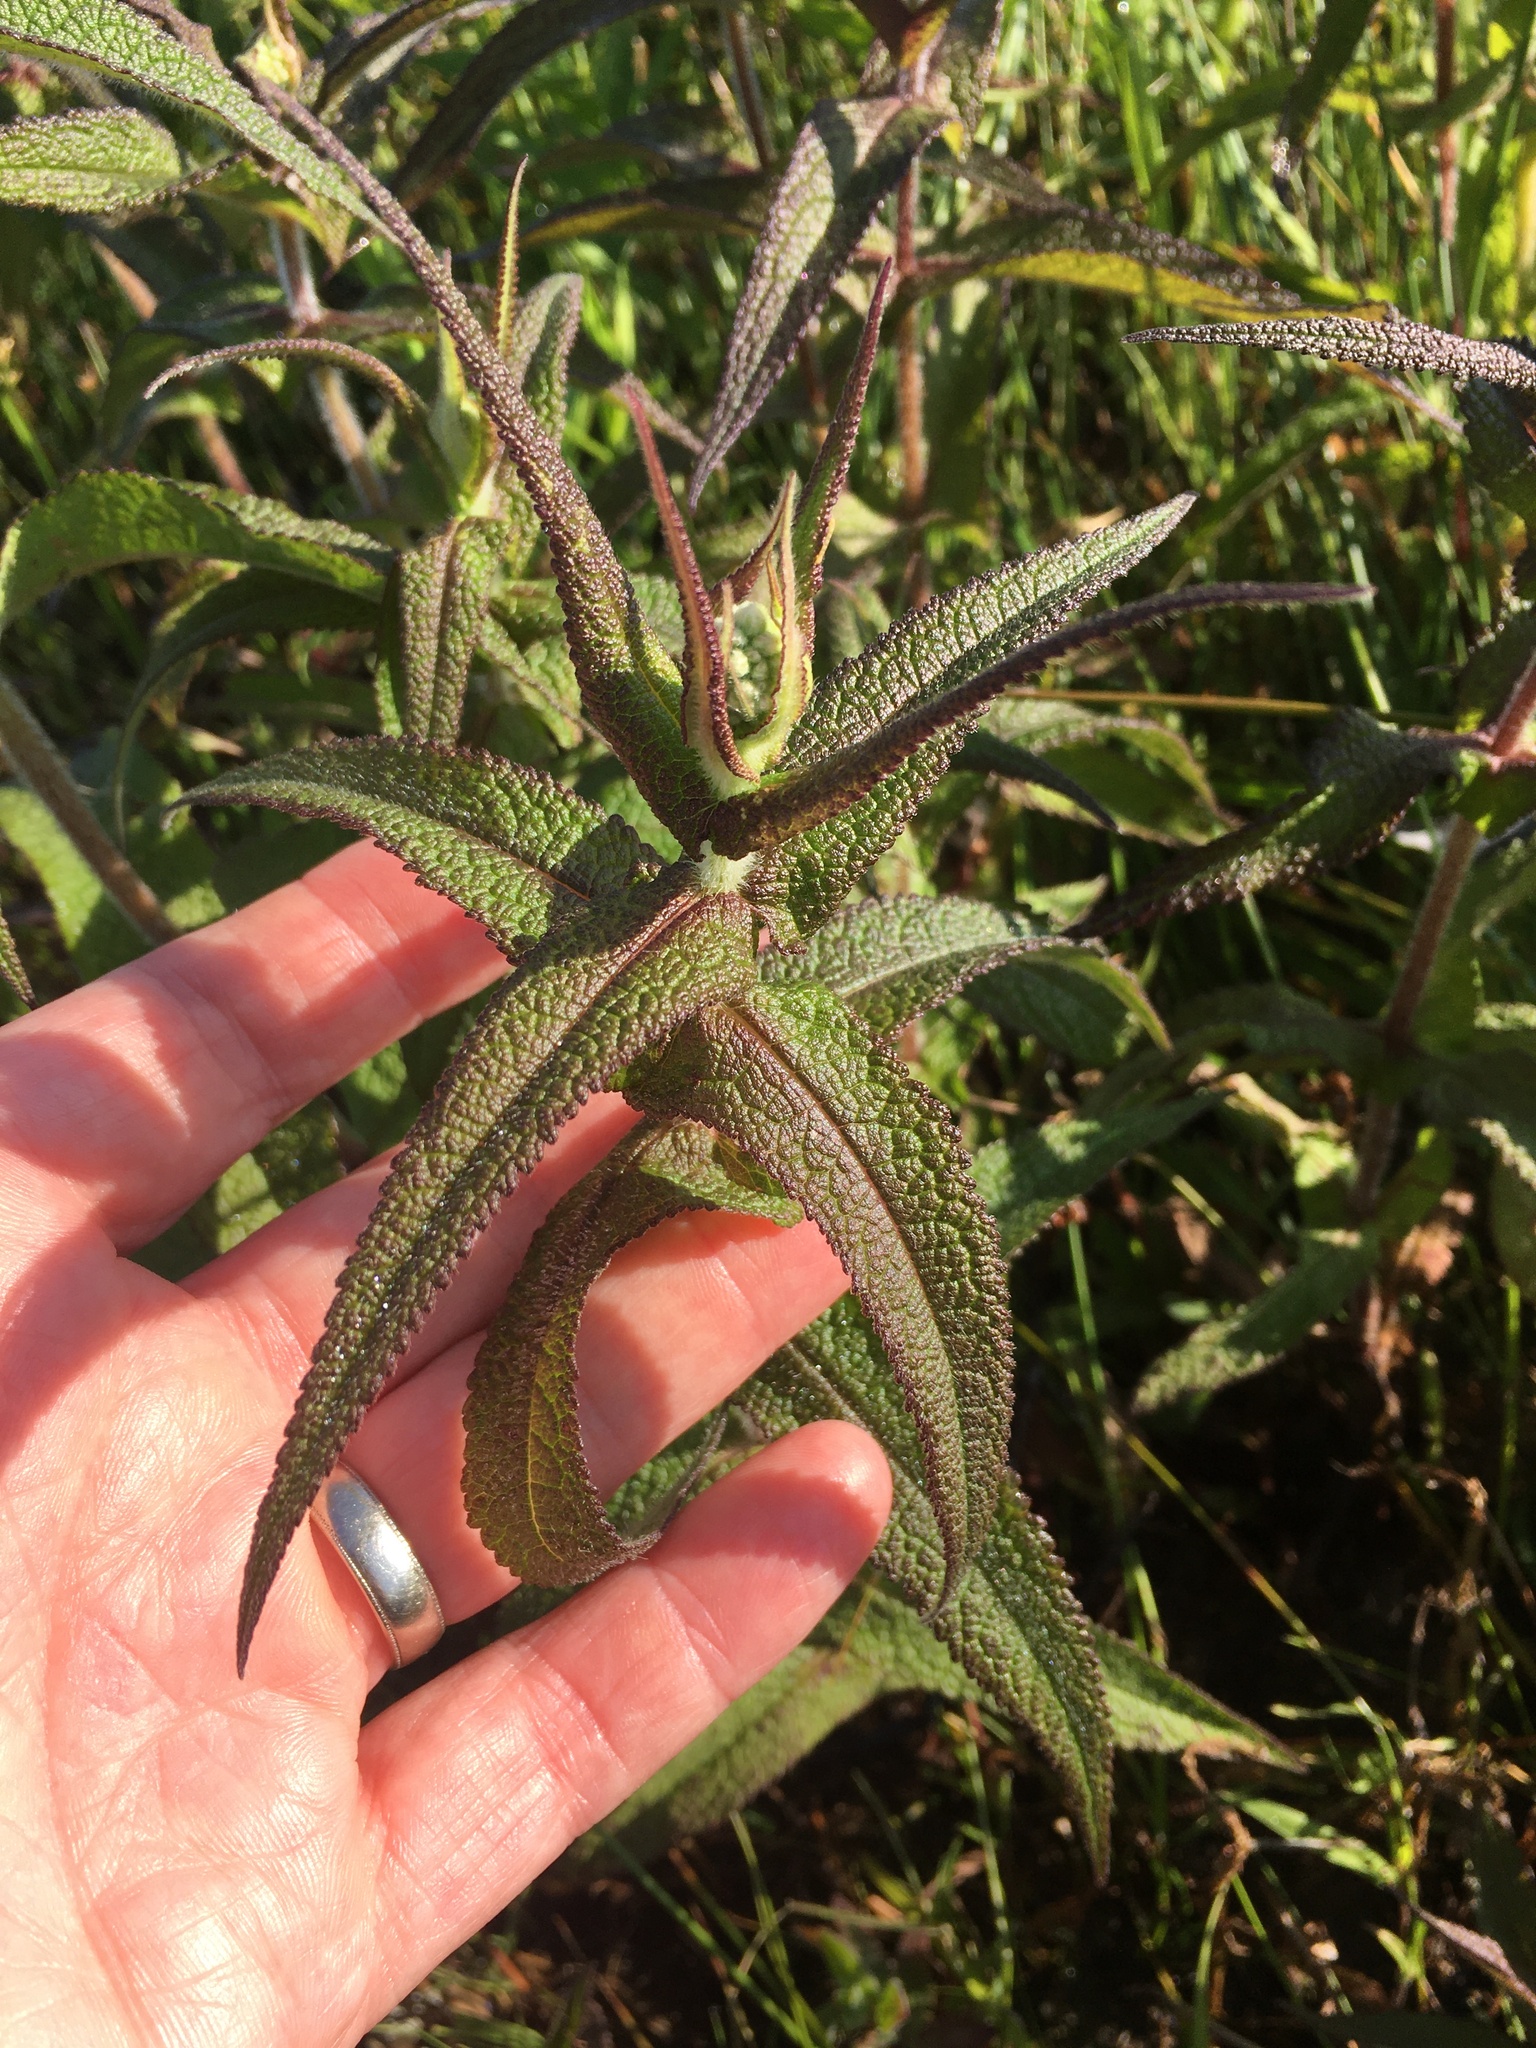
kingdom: Plantae
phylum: Tracheophyta
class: Magnoliopsida
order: Asterales
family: Asteraceae
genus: Eupatorium
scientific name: Eupatorium perfoliatum
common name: Boneset
